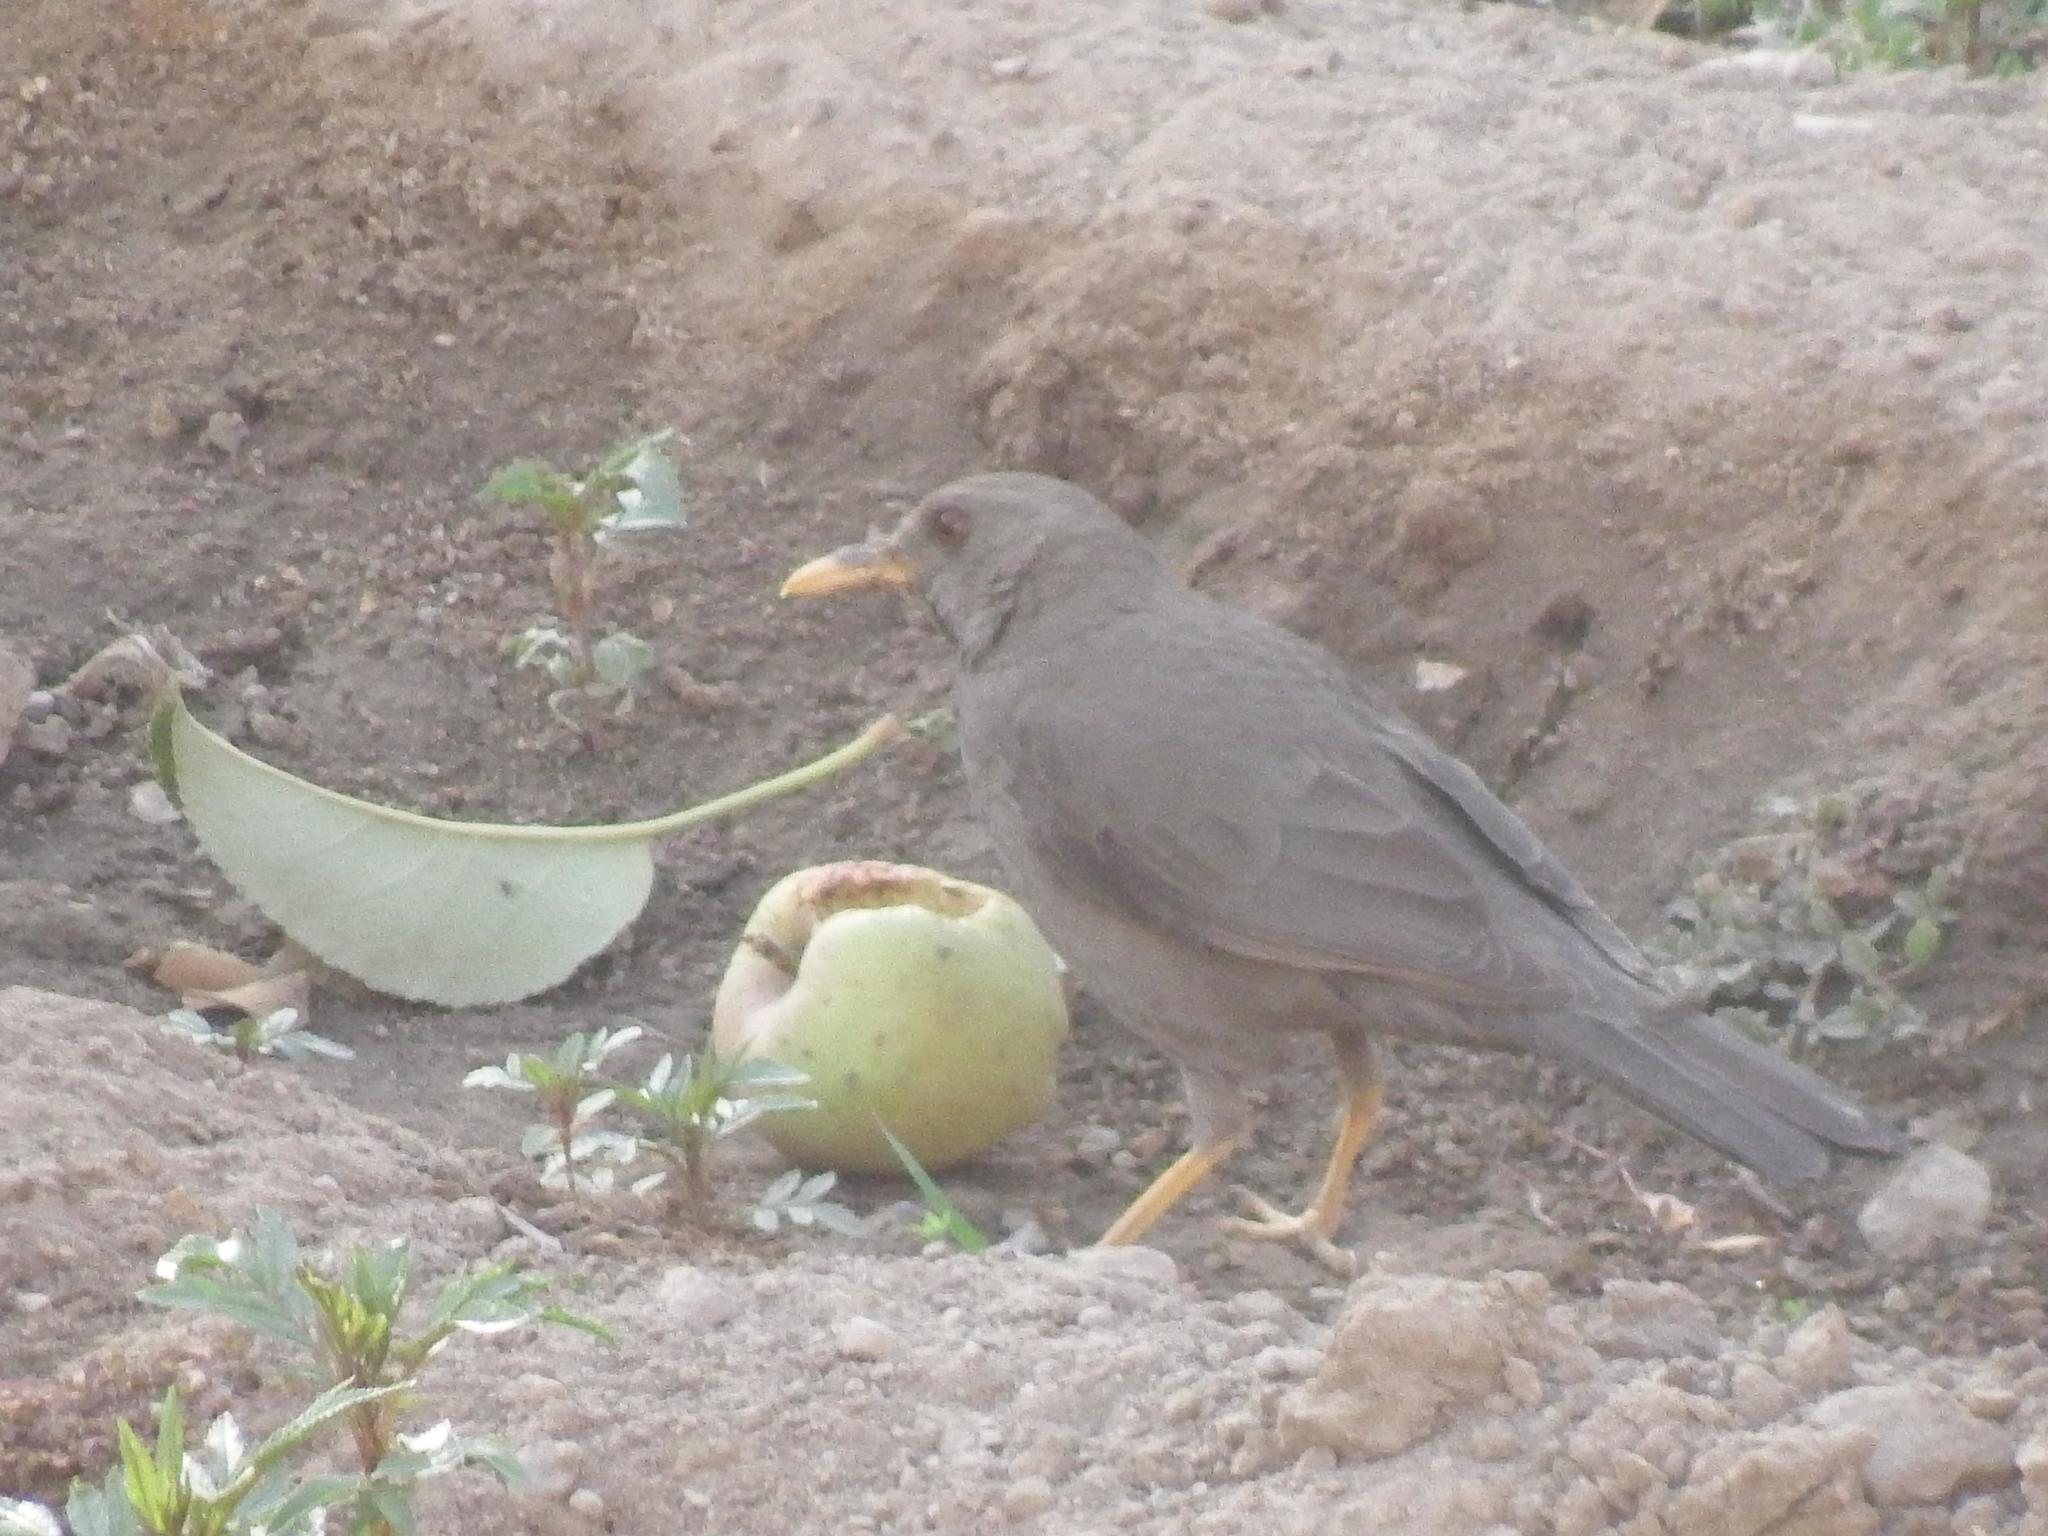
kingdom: Animalia
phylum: Chordata
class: Aves
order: Passeriformes
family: Turdidae
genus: Turdus
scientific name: Turdus chiguanco
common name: Chiguanco thrush
